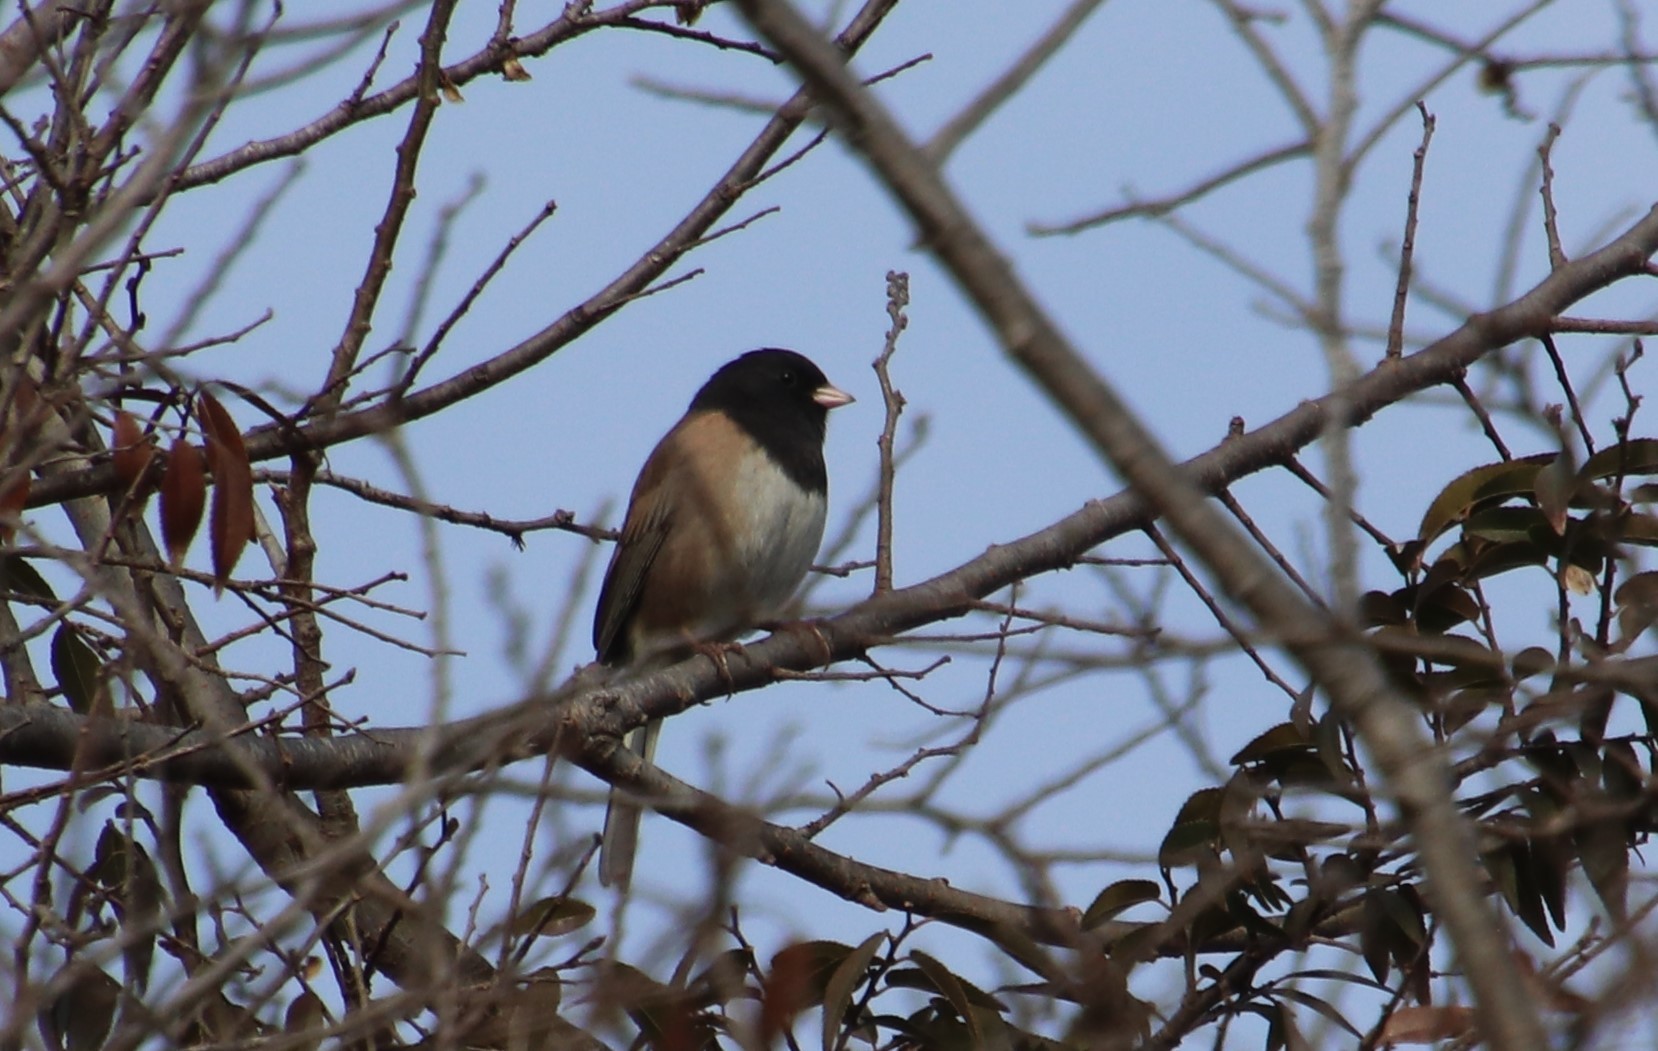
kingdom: Animalia
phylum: Chordata
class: Aves
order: Passeriformes
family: Passerellidae
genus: Junco
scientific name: Junco hyemalis
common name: Dark-eyed junco
